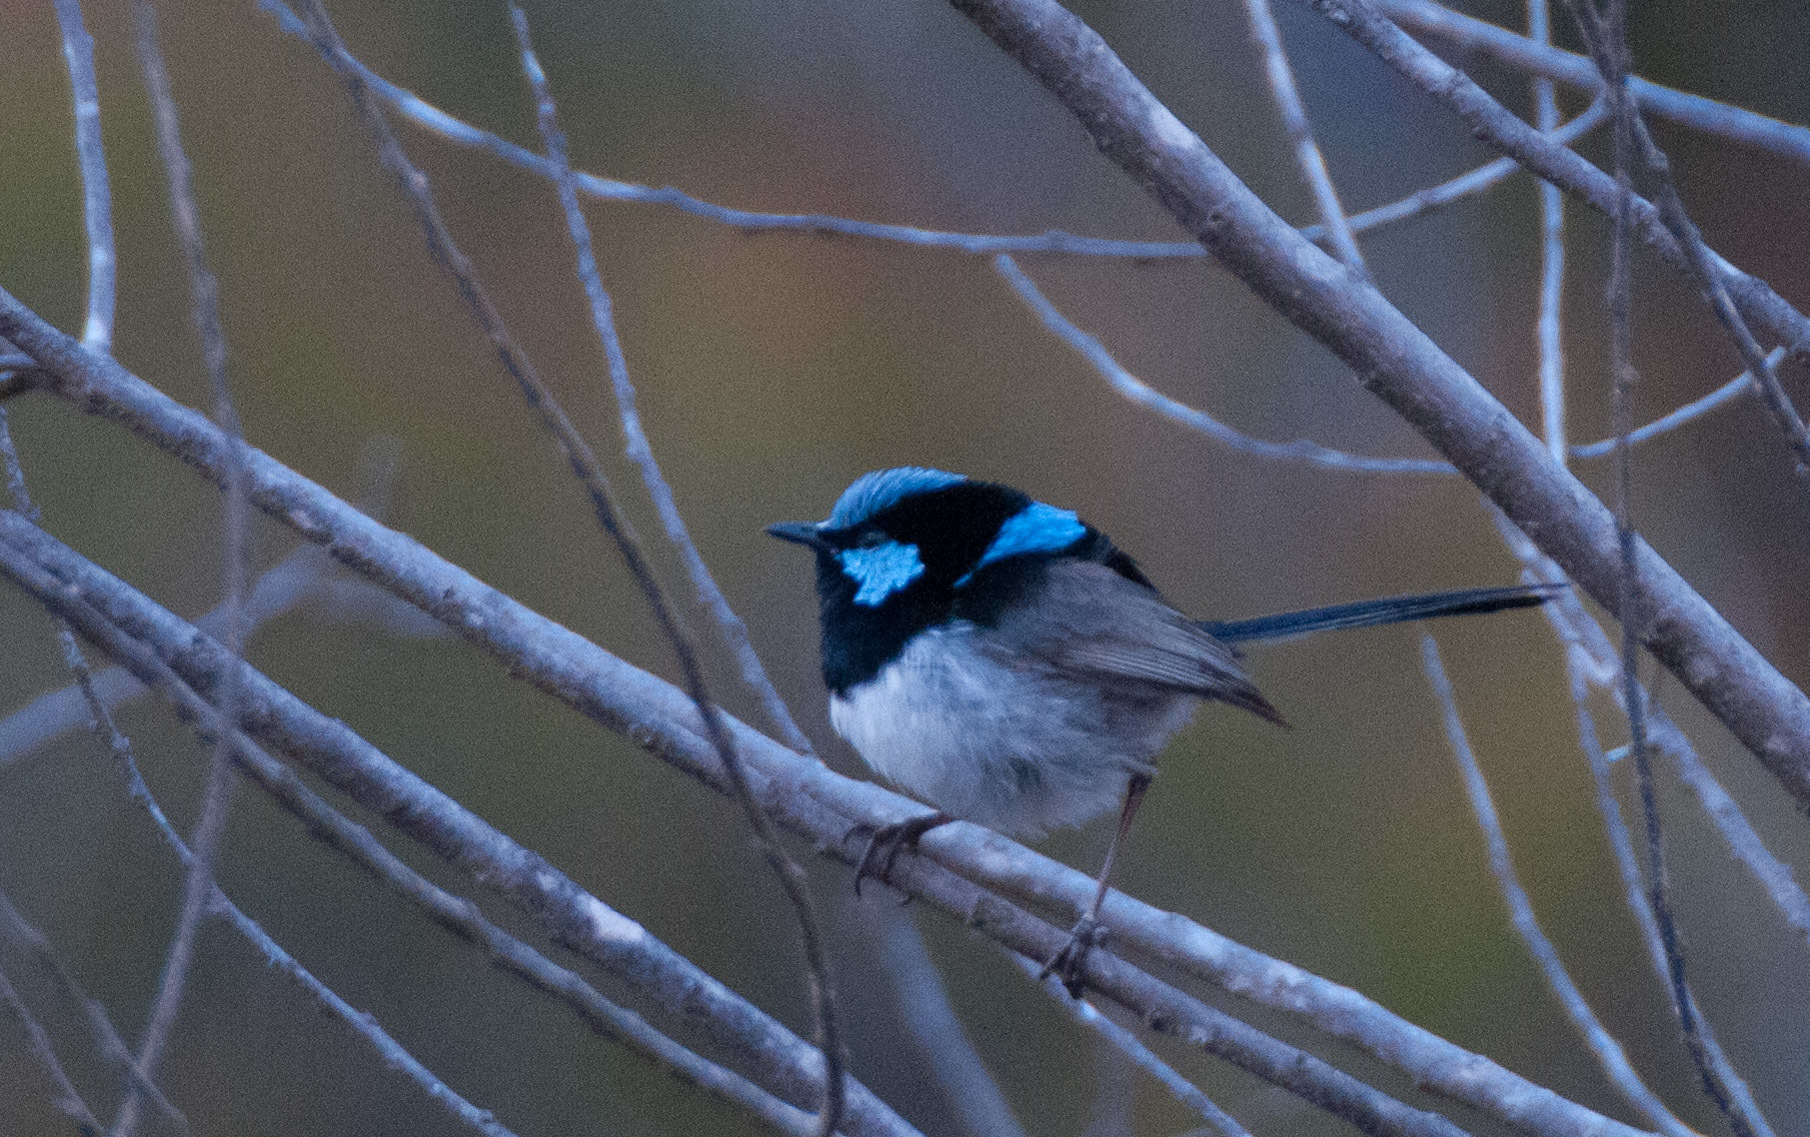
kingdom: Animalia
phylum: Chordata
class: Aves
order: Passeriformes
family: Maluridae
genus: Malurus
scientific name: Malurus cyaneus
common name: Superb fairywren
